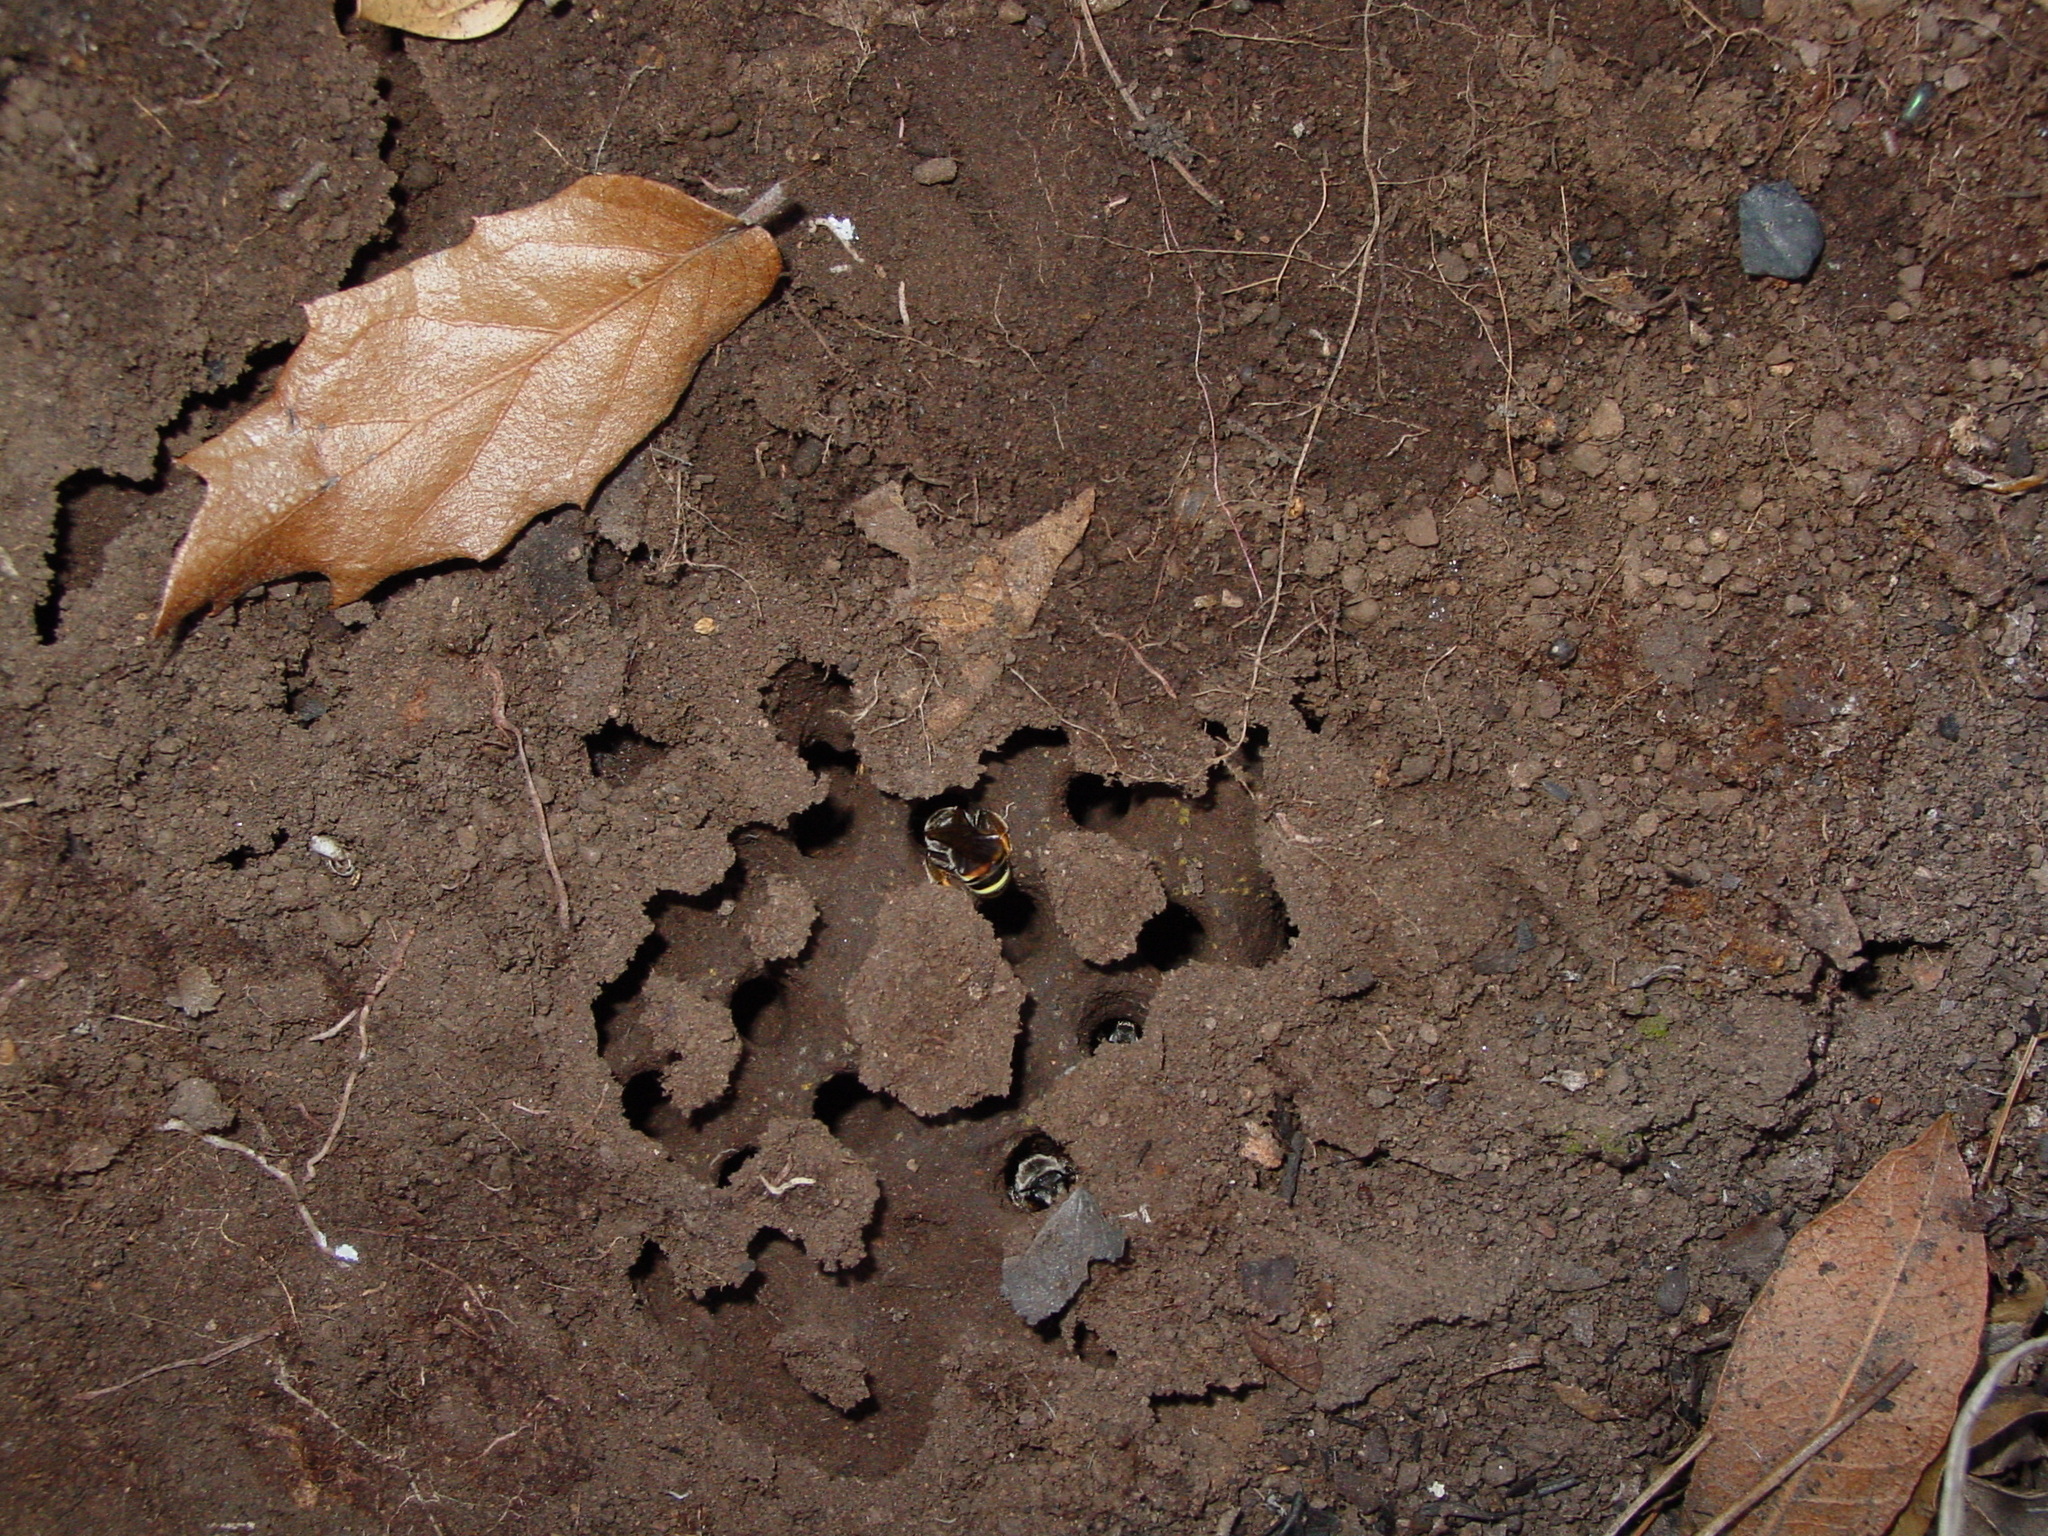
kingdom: Animalia
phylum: Arthropoda
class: Insecta
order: Hymenoptera
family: Halictidae
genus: Nomia
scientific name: Nomia angustitibialis
